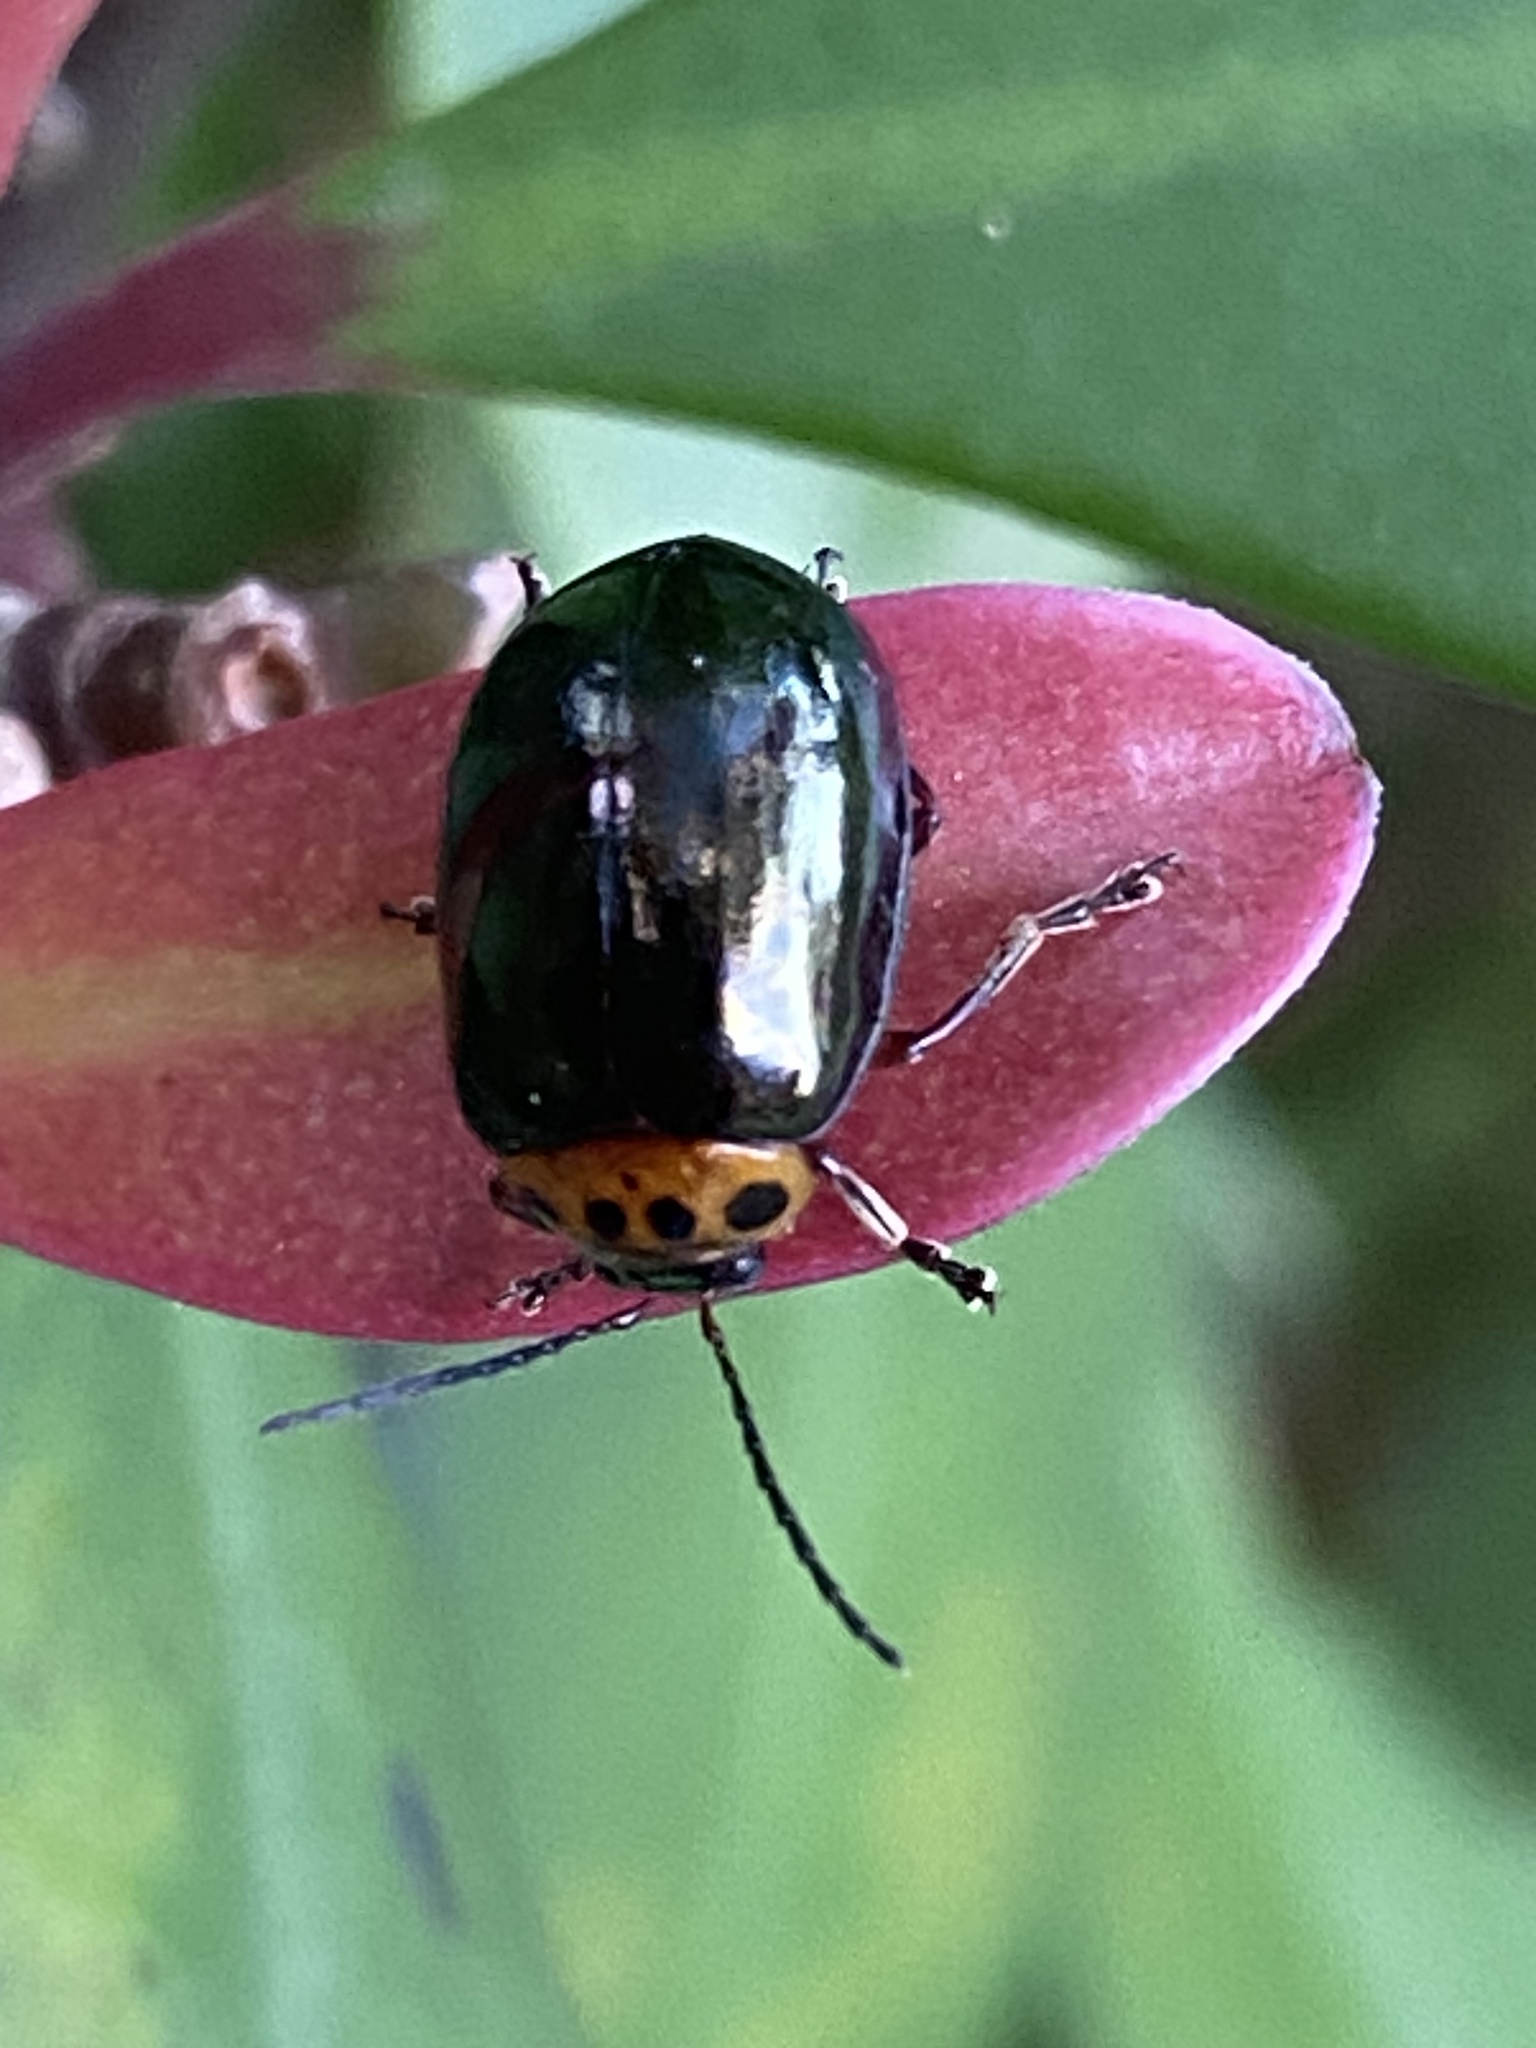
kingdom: Animalia
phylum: Arthropoda
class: Insecta
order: Coleoptera
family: Chrysomelidae
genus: Morphosphaera
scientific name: Morphosphaera chrysomeloides
